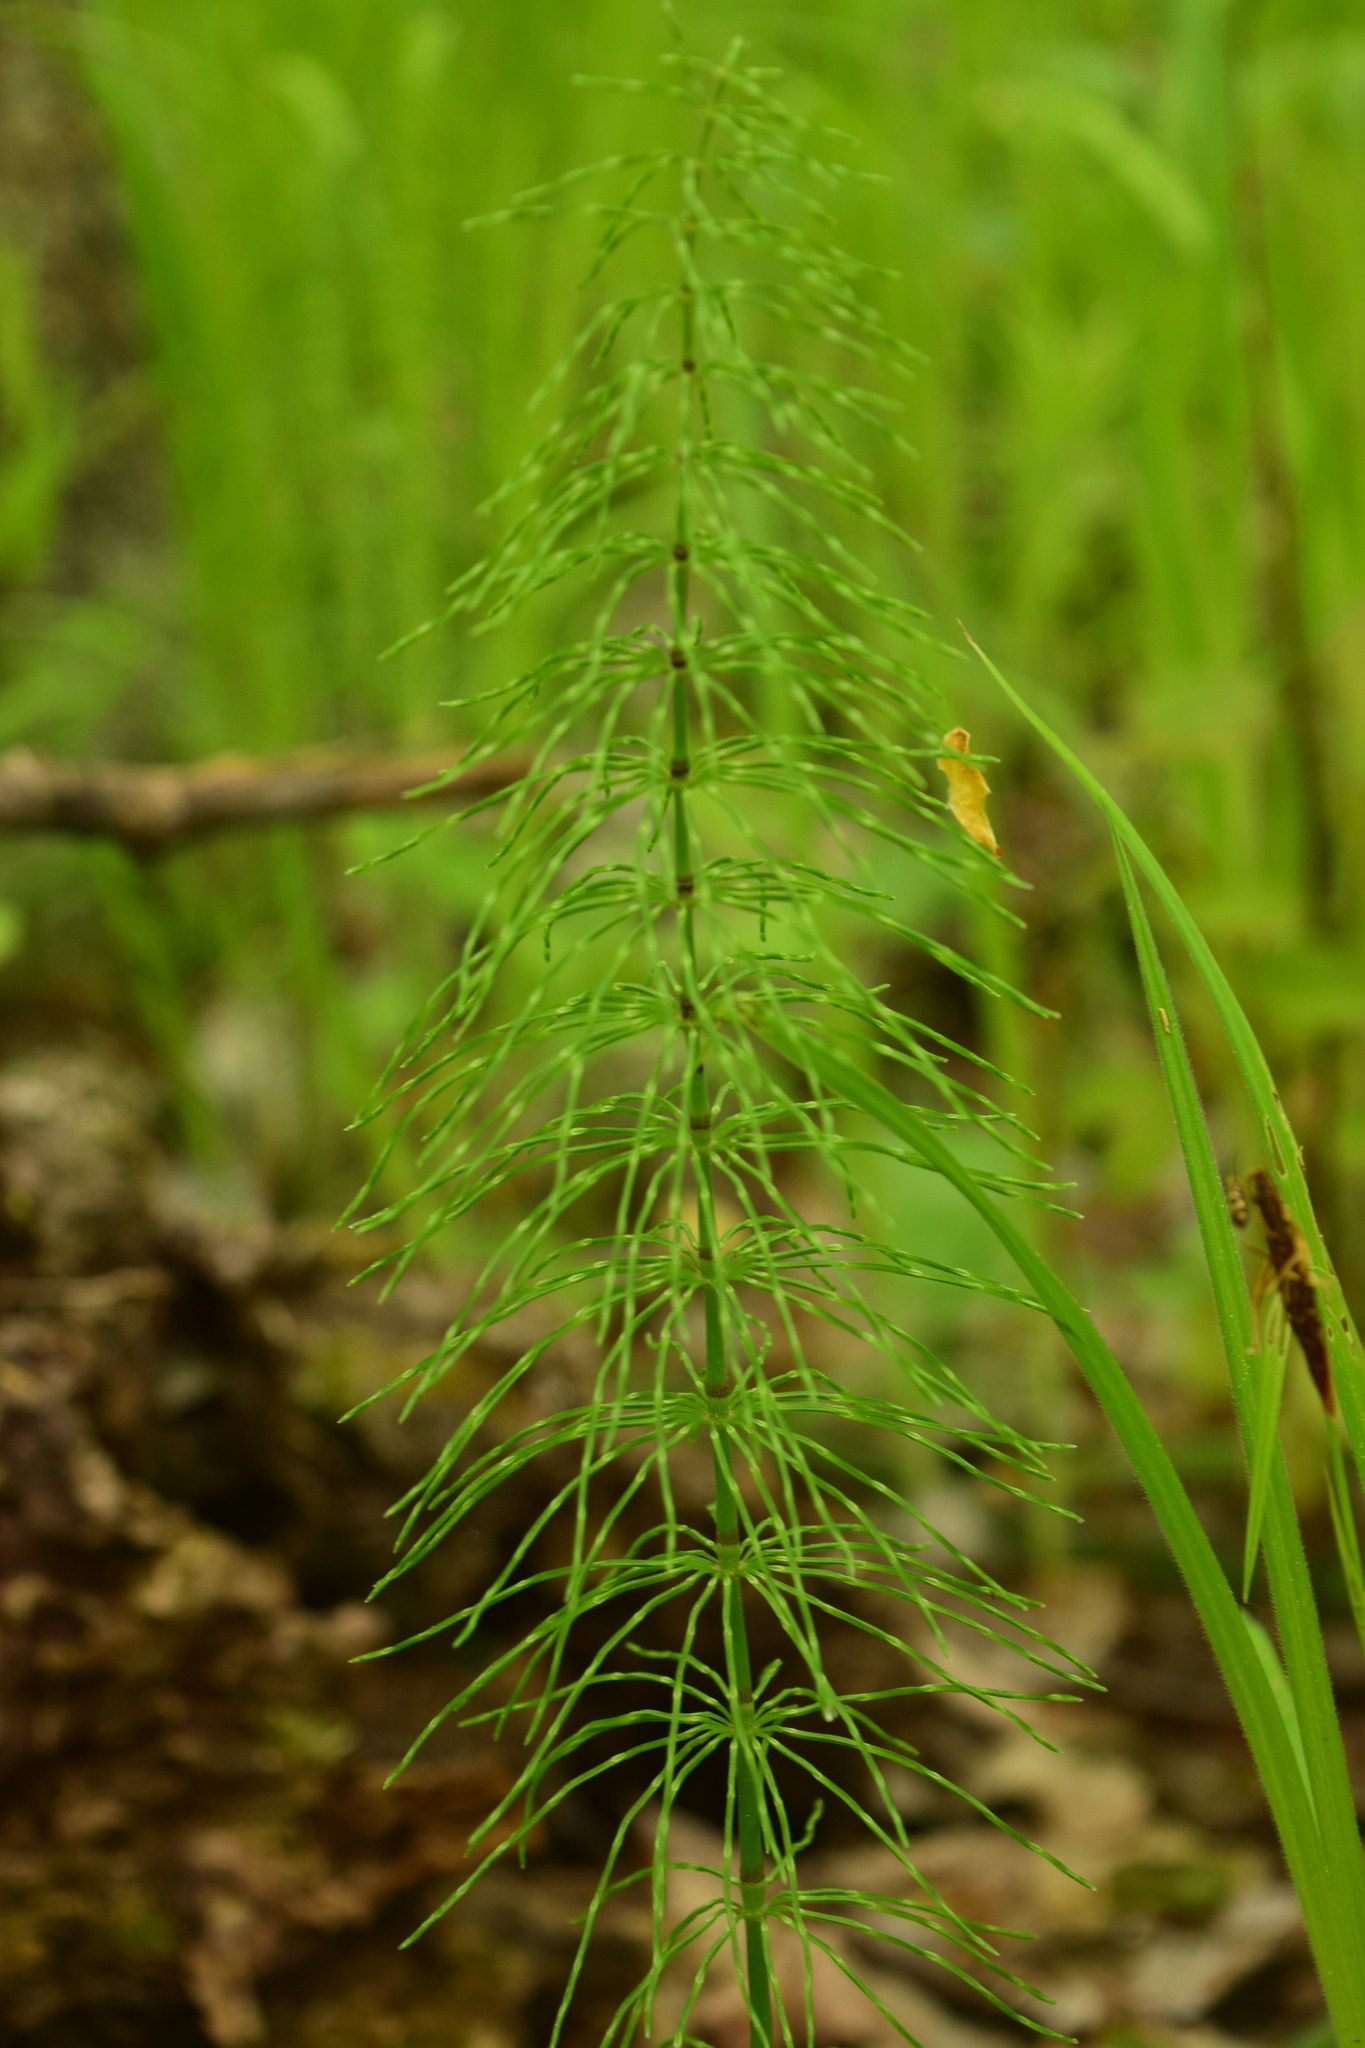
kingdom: Plantae
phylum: Tracheophyta
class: Polypodiopsida
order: Equisetales
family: Equisetaceae
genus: Equisetum
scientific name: Equisetum pratense
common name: Meadow horsetail
